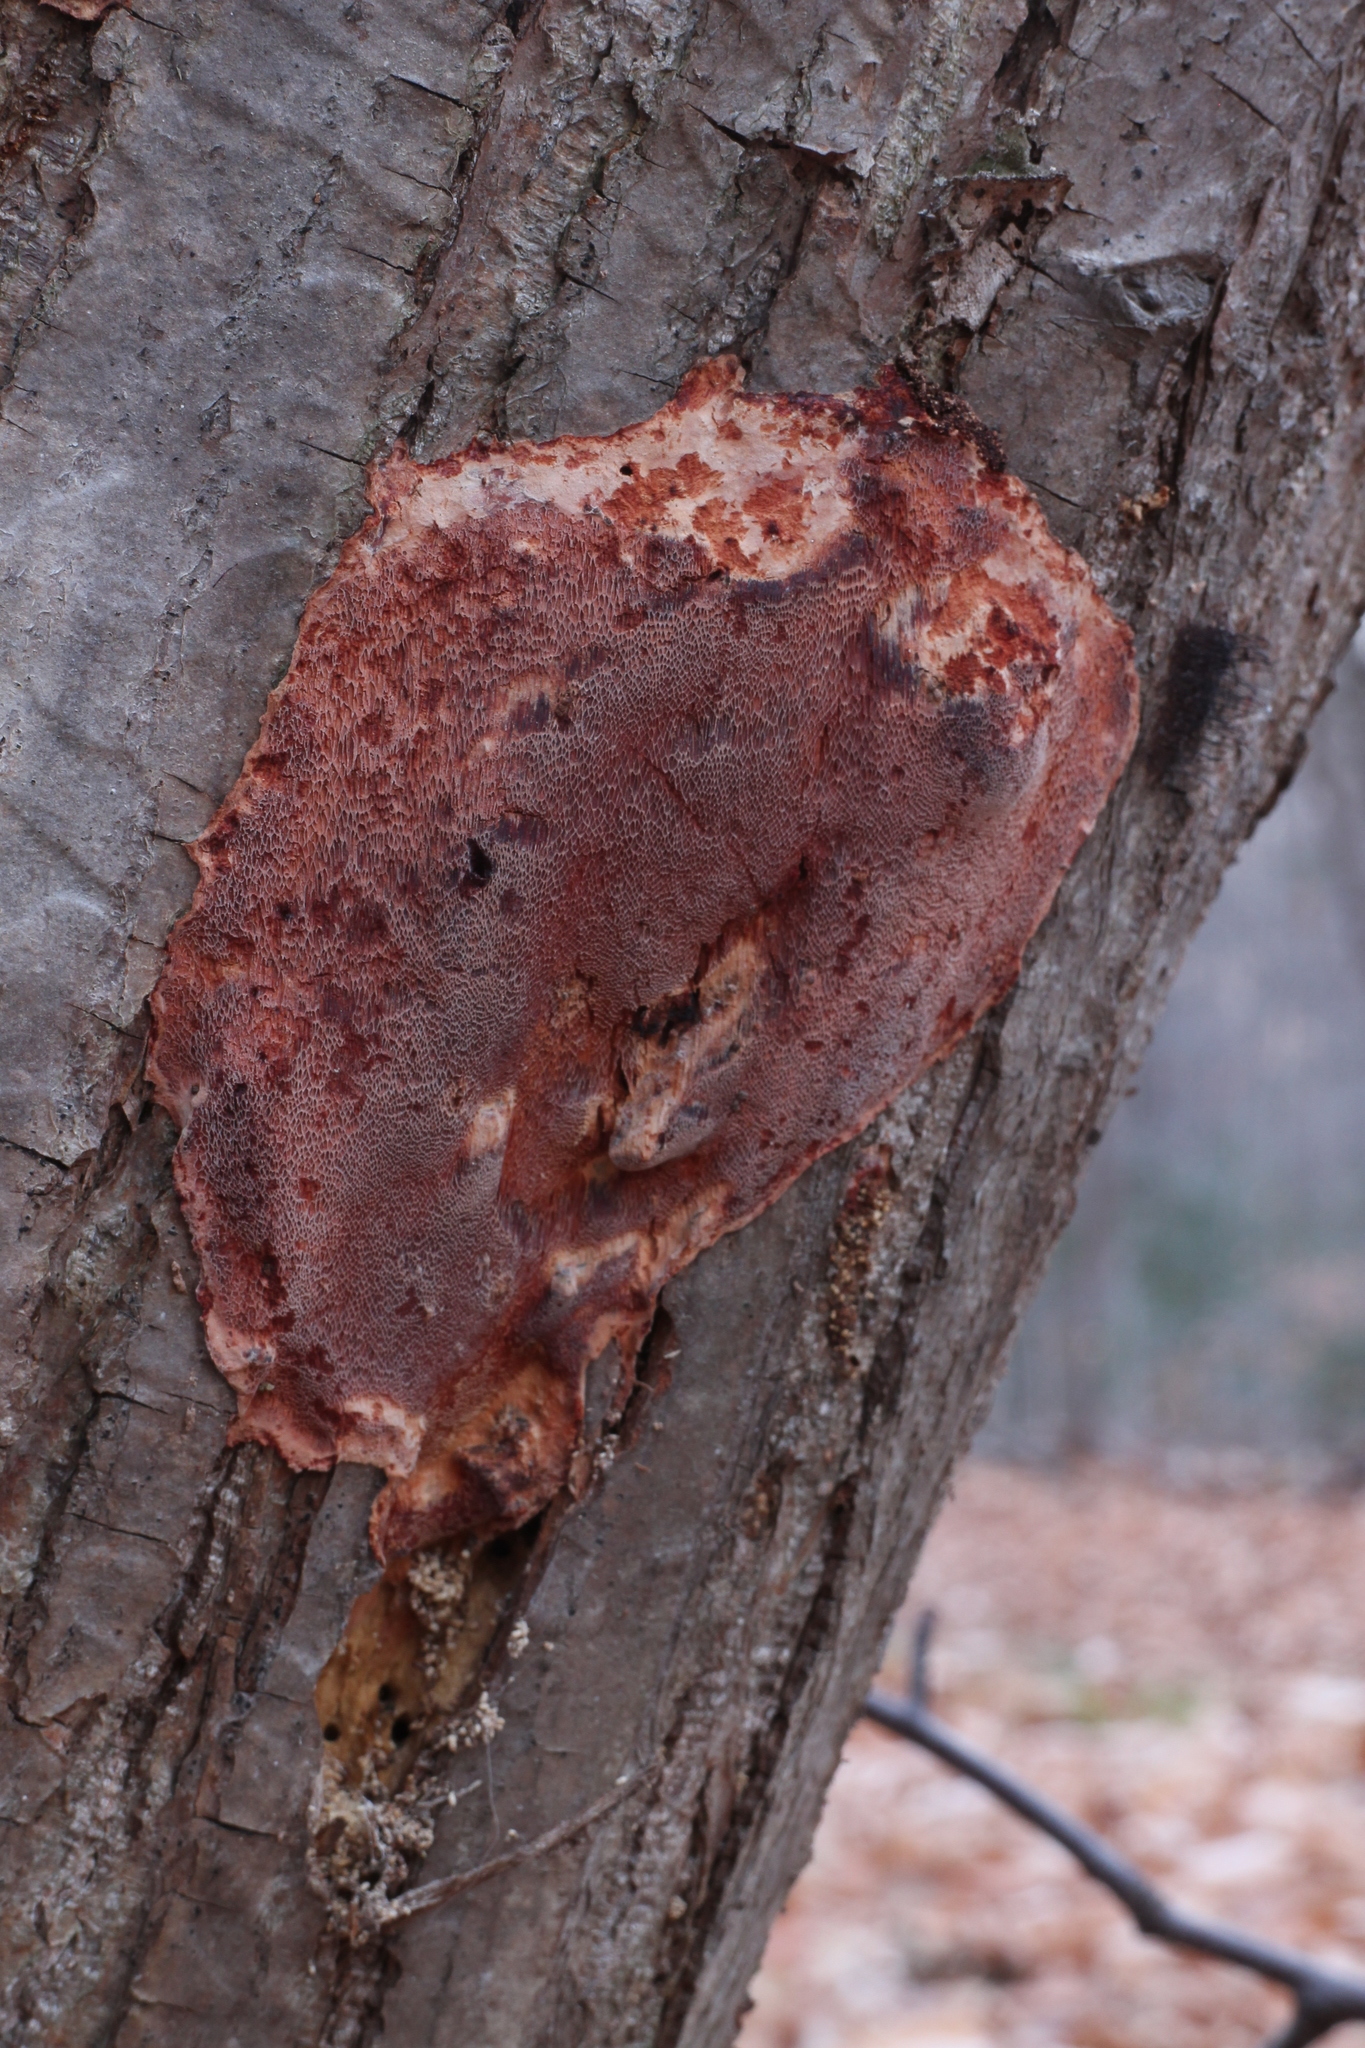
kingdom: Fungi
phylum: Basidiomycota
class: Agaricomycetes
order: Polyporales
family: Polyporaceae
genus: Rhodonia
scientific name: Rhodonia placenta
